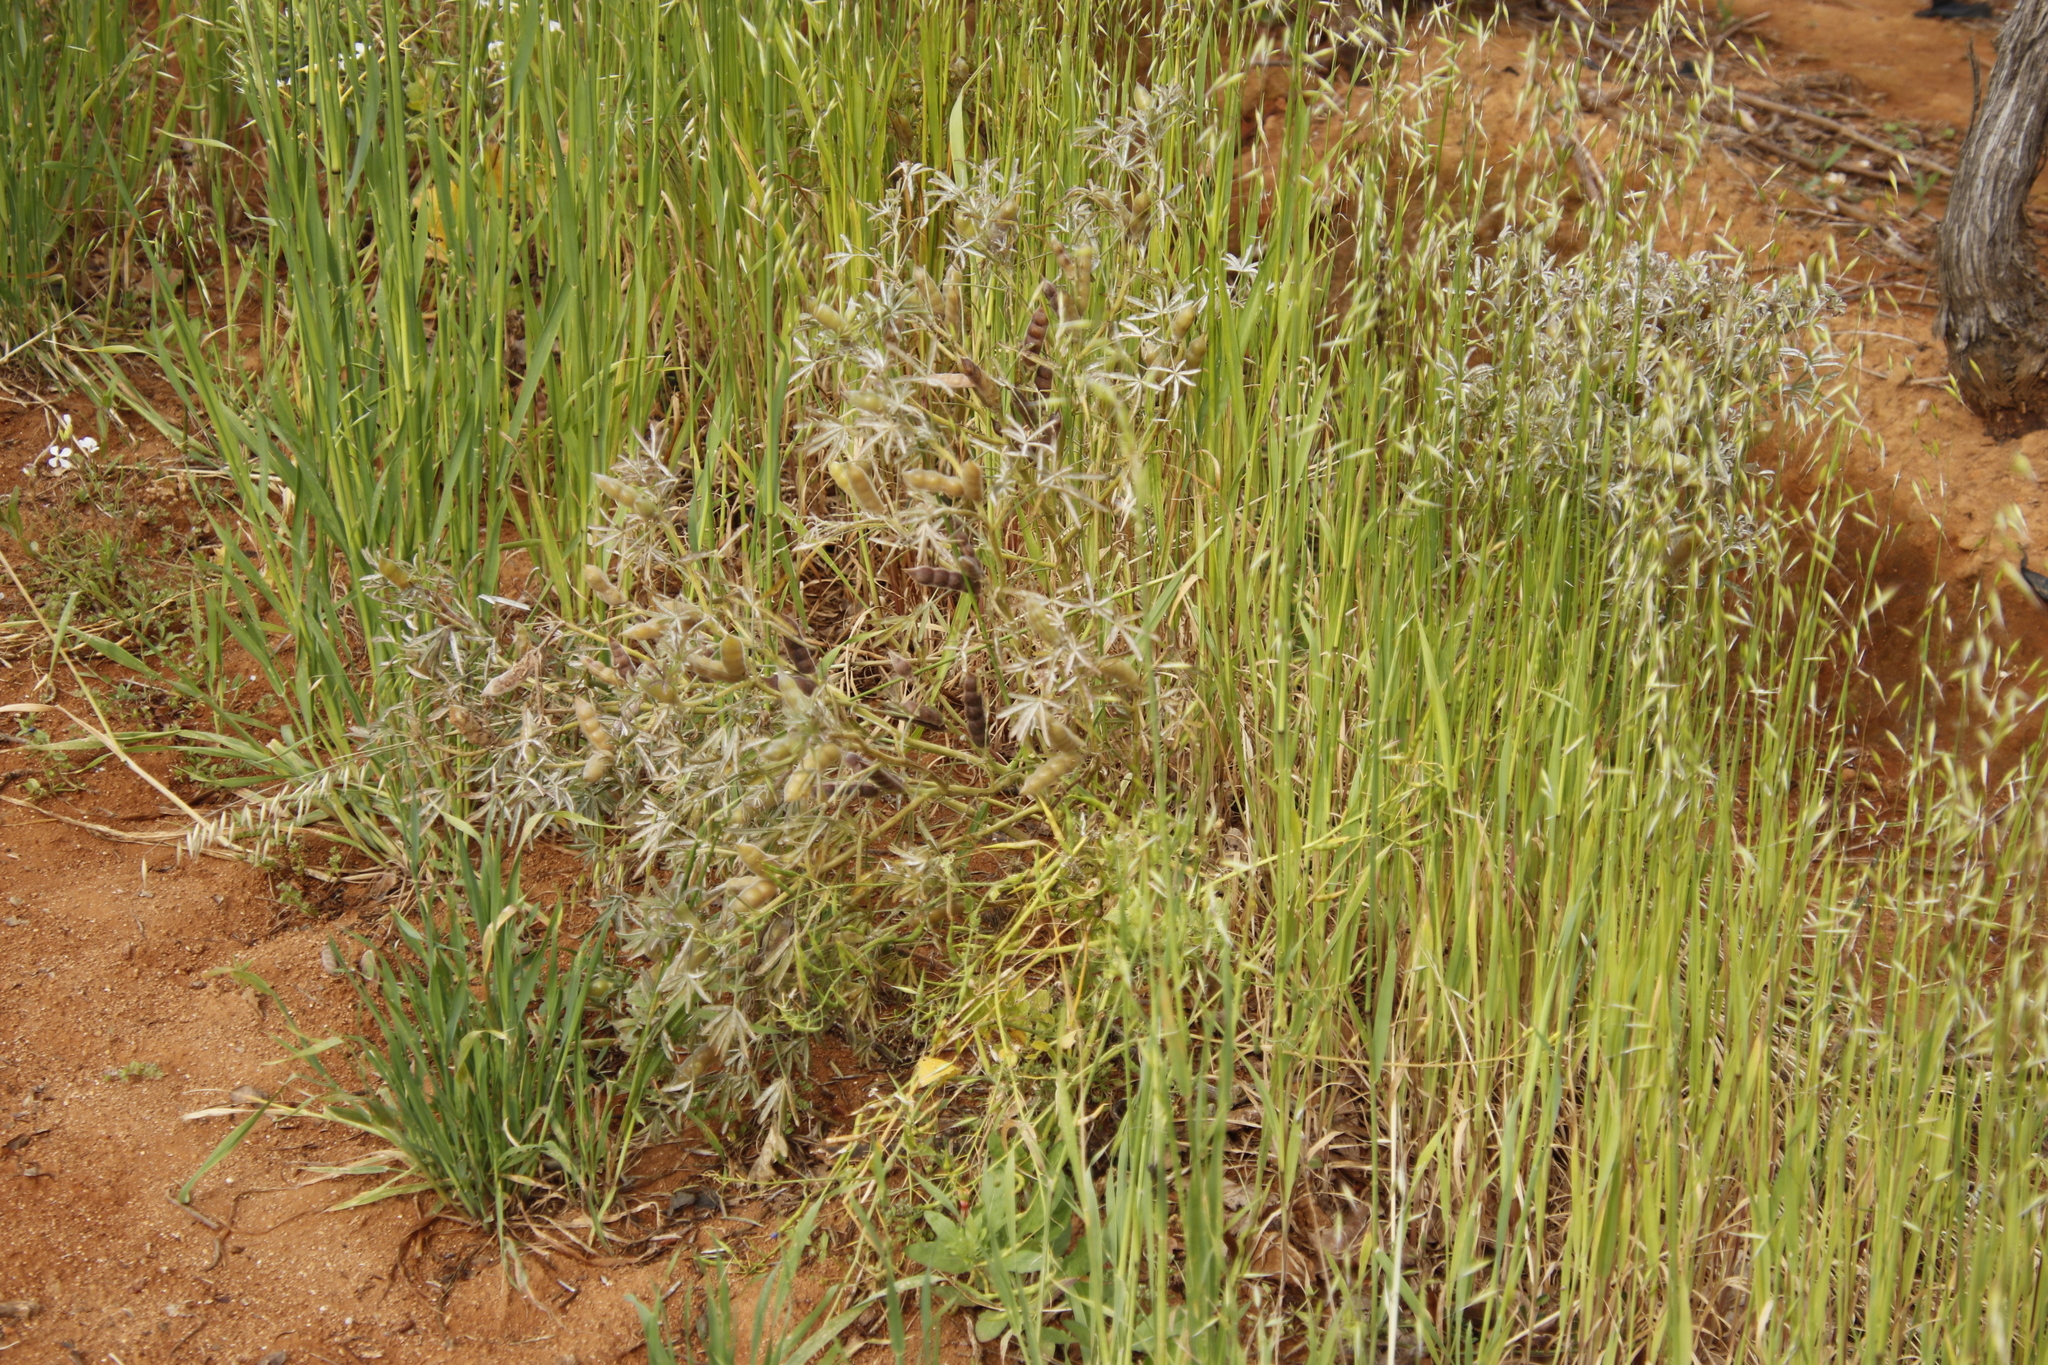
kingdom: Plantae
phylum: Tracheophyta
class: Magnoliopsida
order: Fabales
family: Fabaceae
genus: Lupinus
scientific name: Lupinus angustifolius
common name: Narrow-leaved lupin
